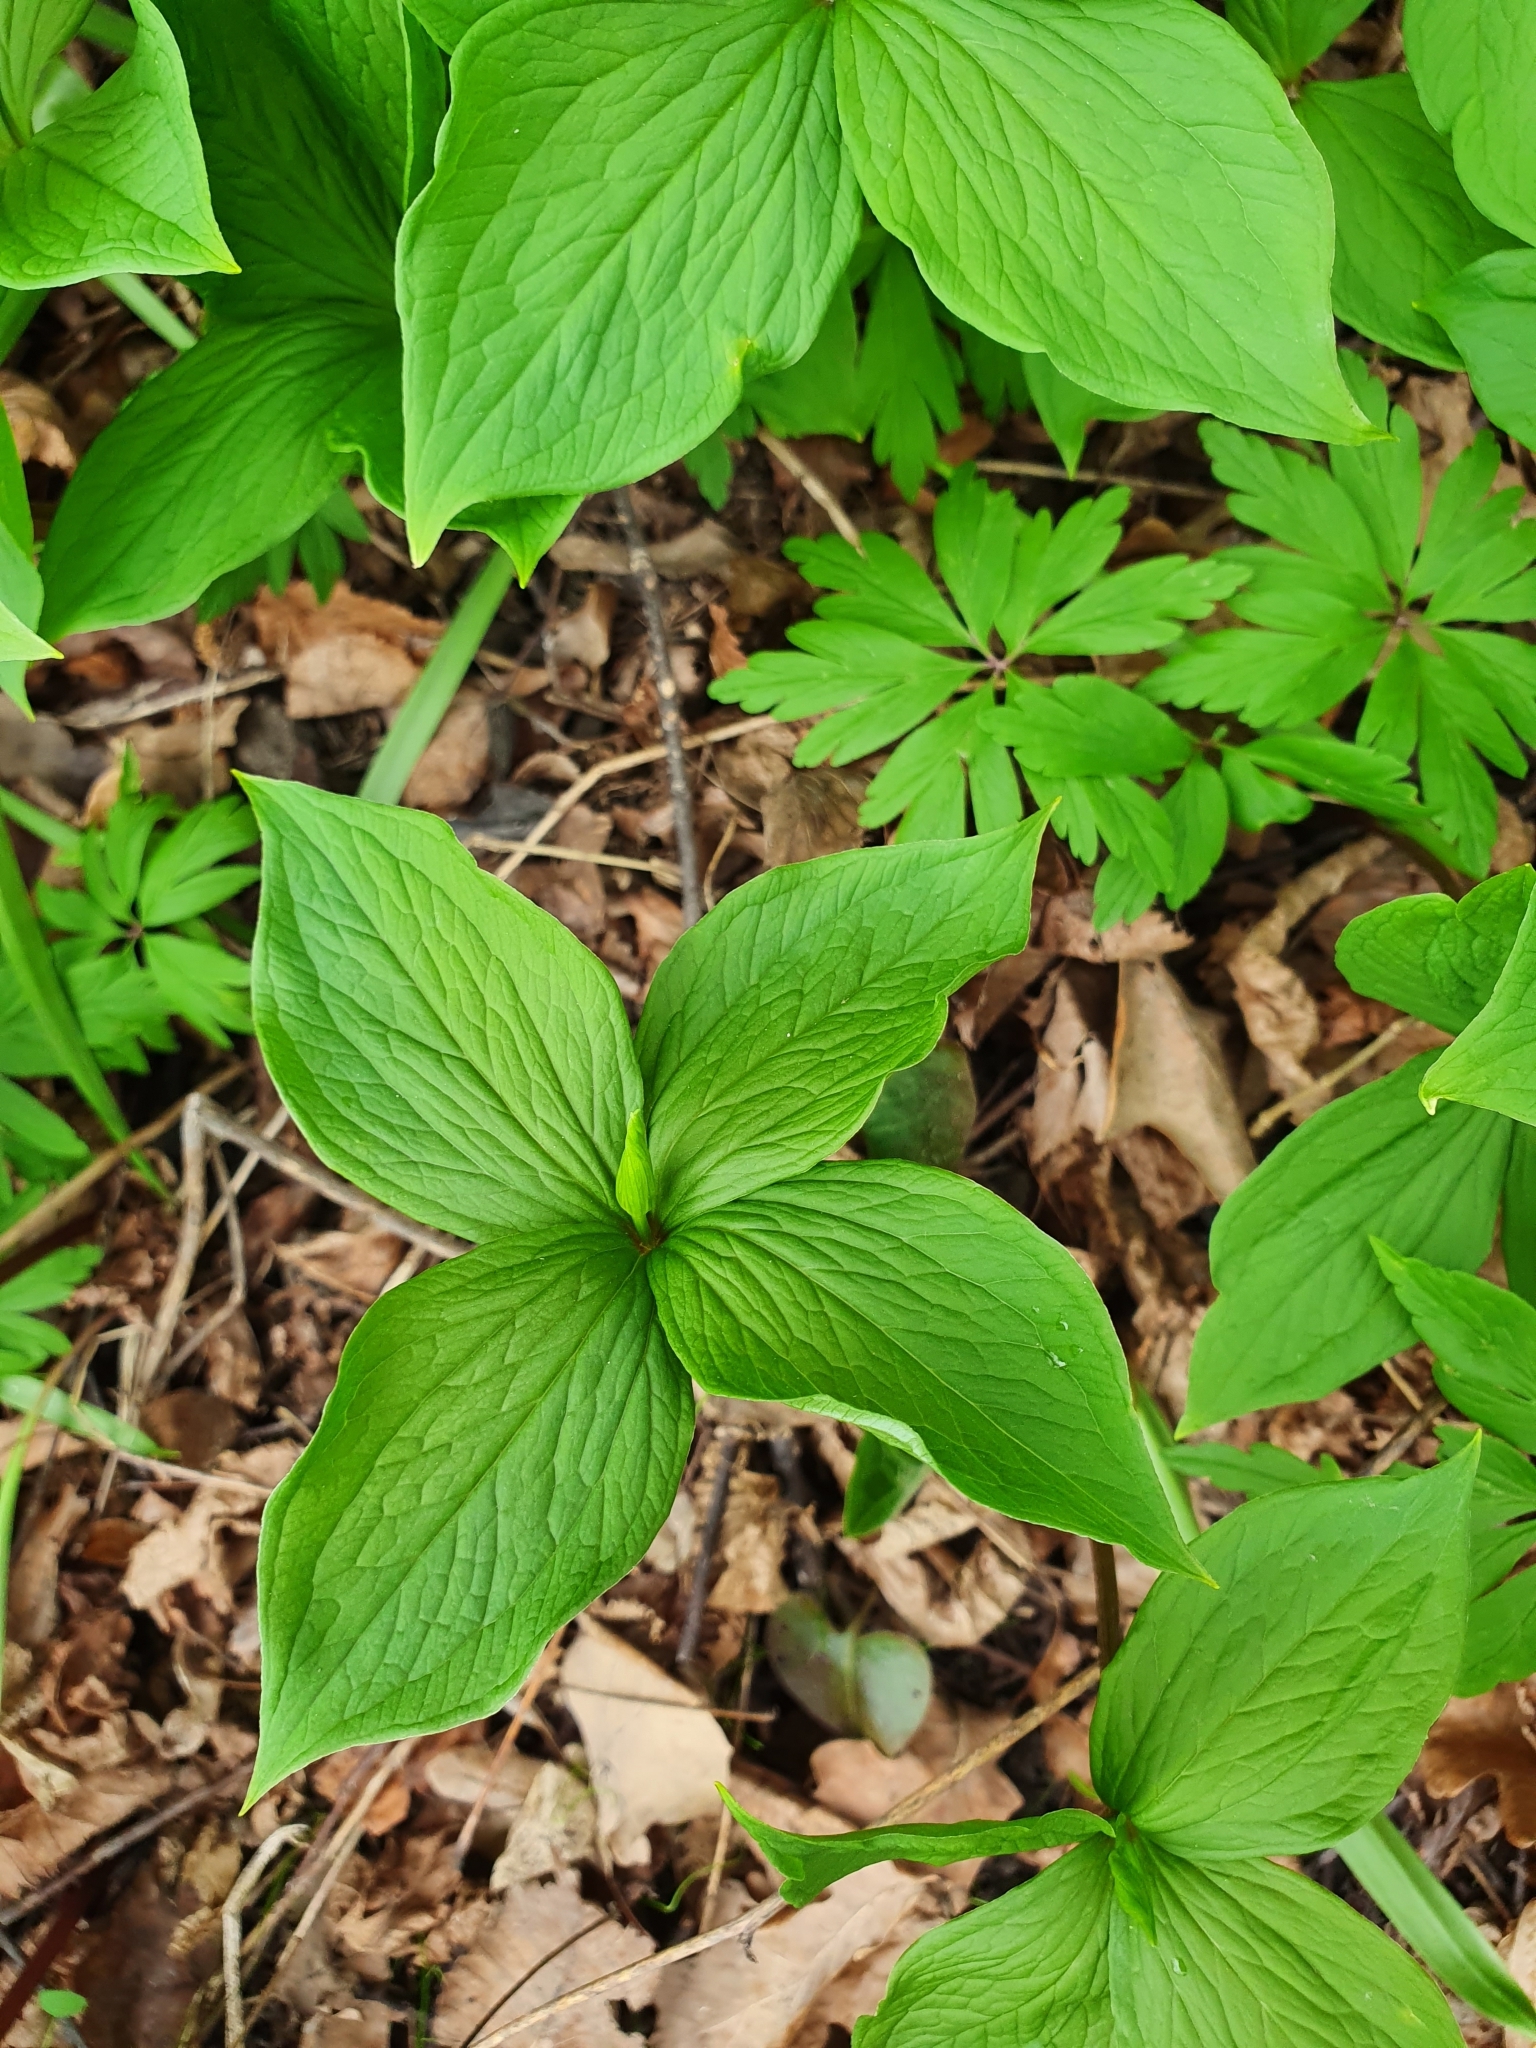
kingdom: Plantae
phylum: Tracheophyta
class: Liliopsida
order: Liliales
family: Melanthiaceae
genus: Paris
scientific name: Paris quadrifolia
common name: Herb-paris
